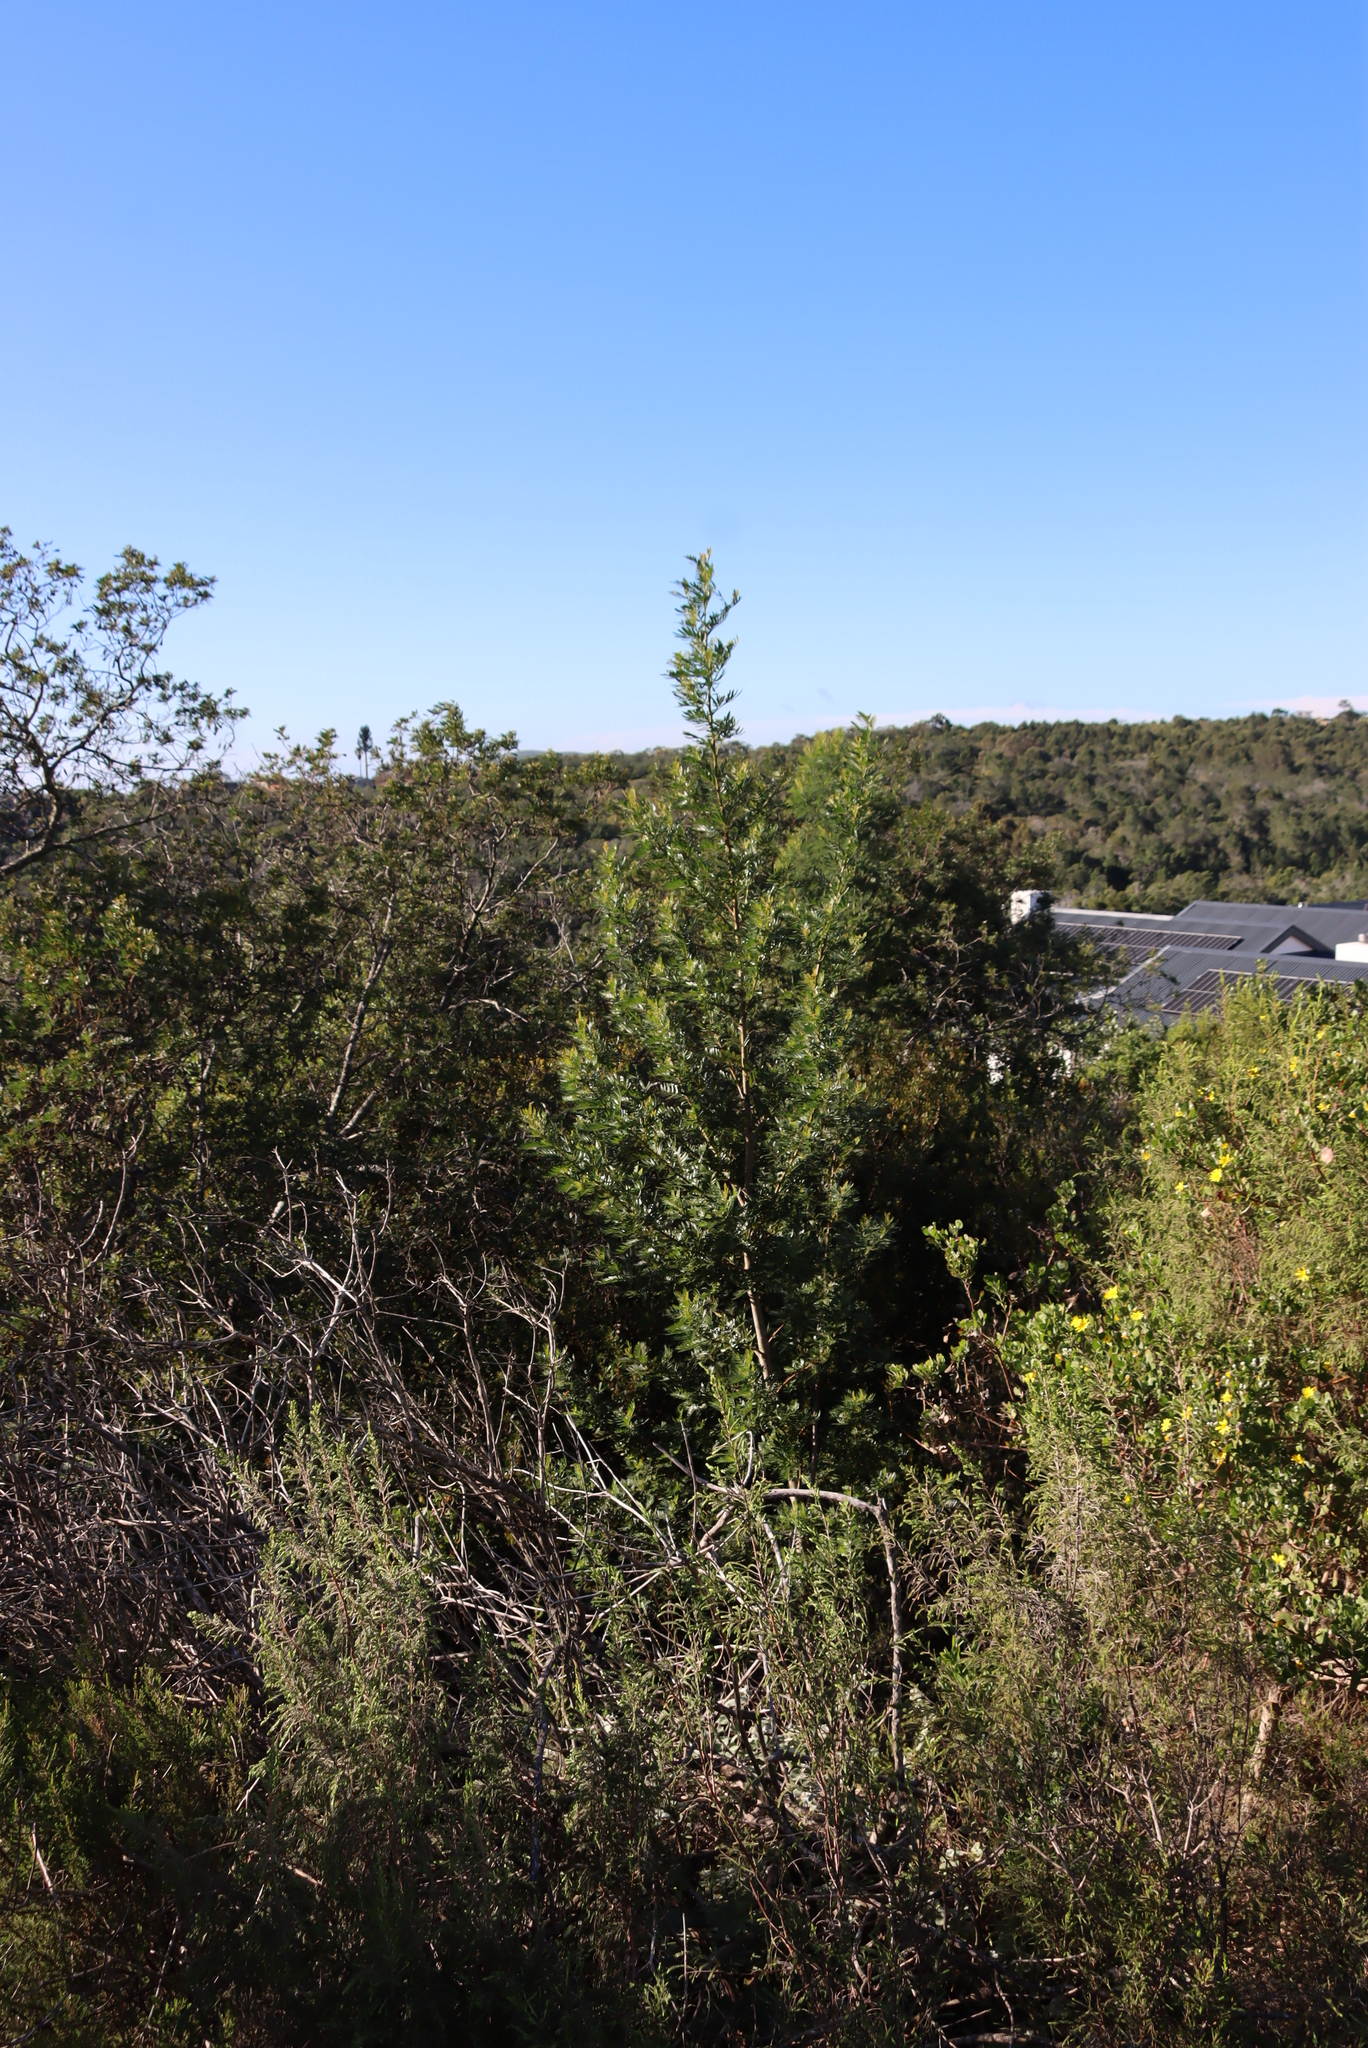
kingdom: Plantae
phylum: Tracheophyta
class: Magnoliopsida
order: Fabales
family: Fabaceae
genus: Virgilia
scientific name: Virgilia divaricata
